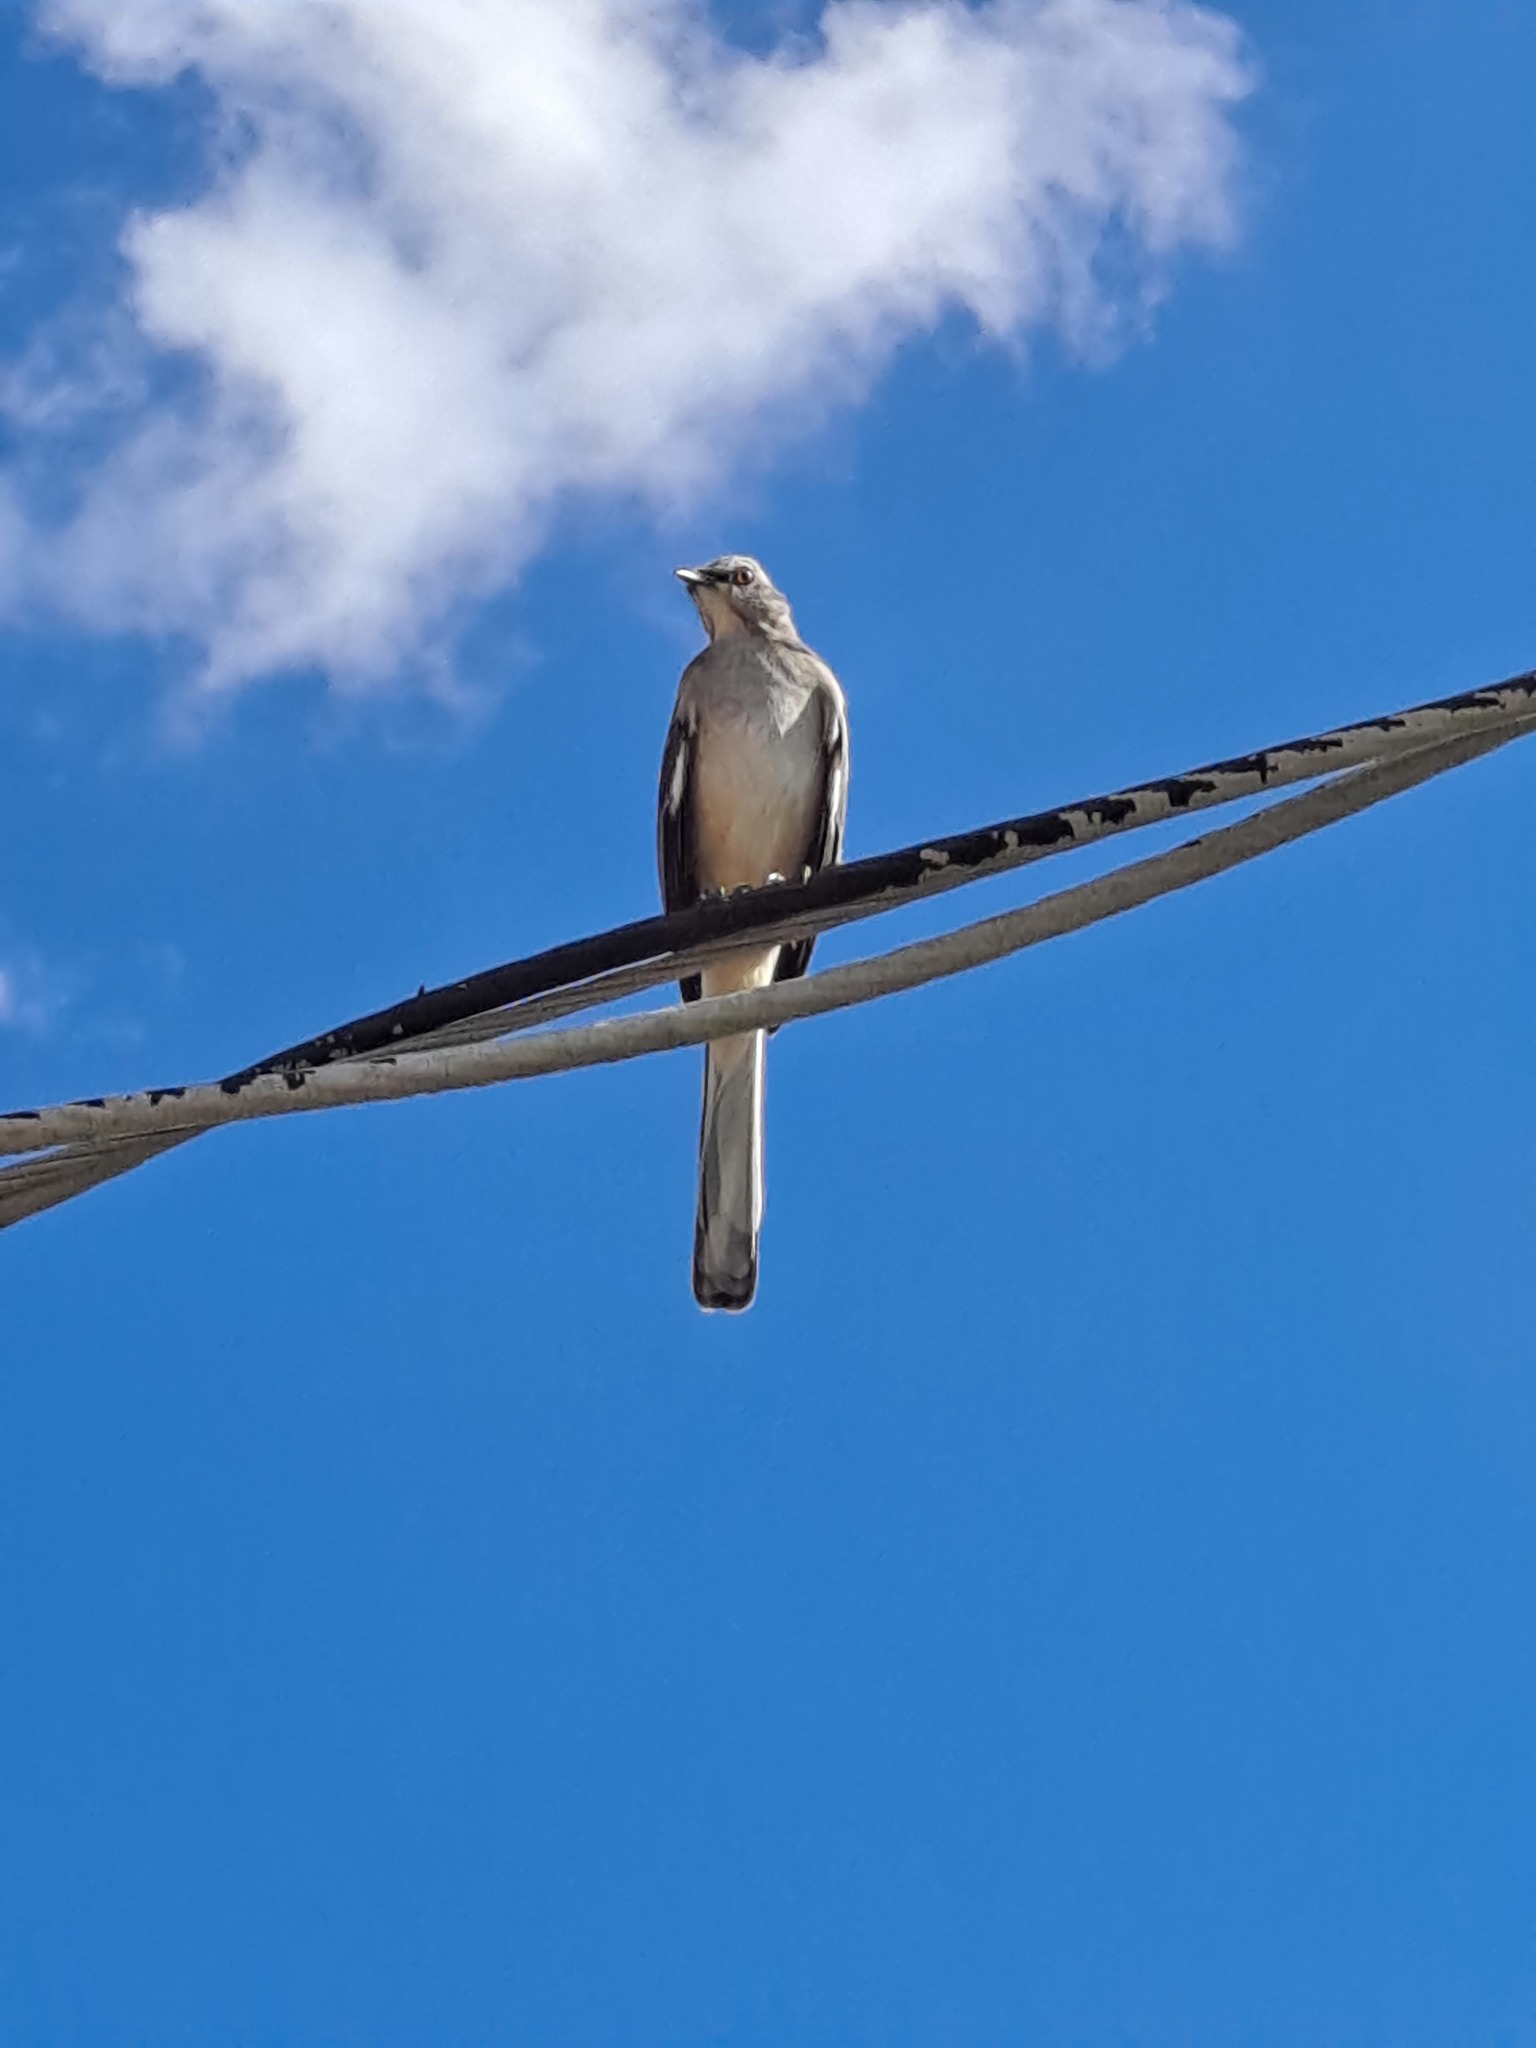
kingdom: Animalia
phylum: Chordata
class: Aves
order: Passeriformes
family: Mimidae
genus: Mimus
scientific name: Mimus polyglottos
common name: Northern mockingbird
